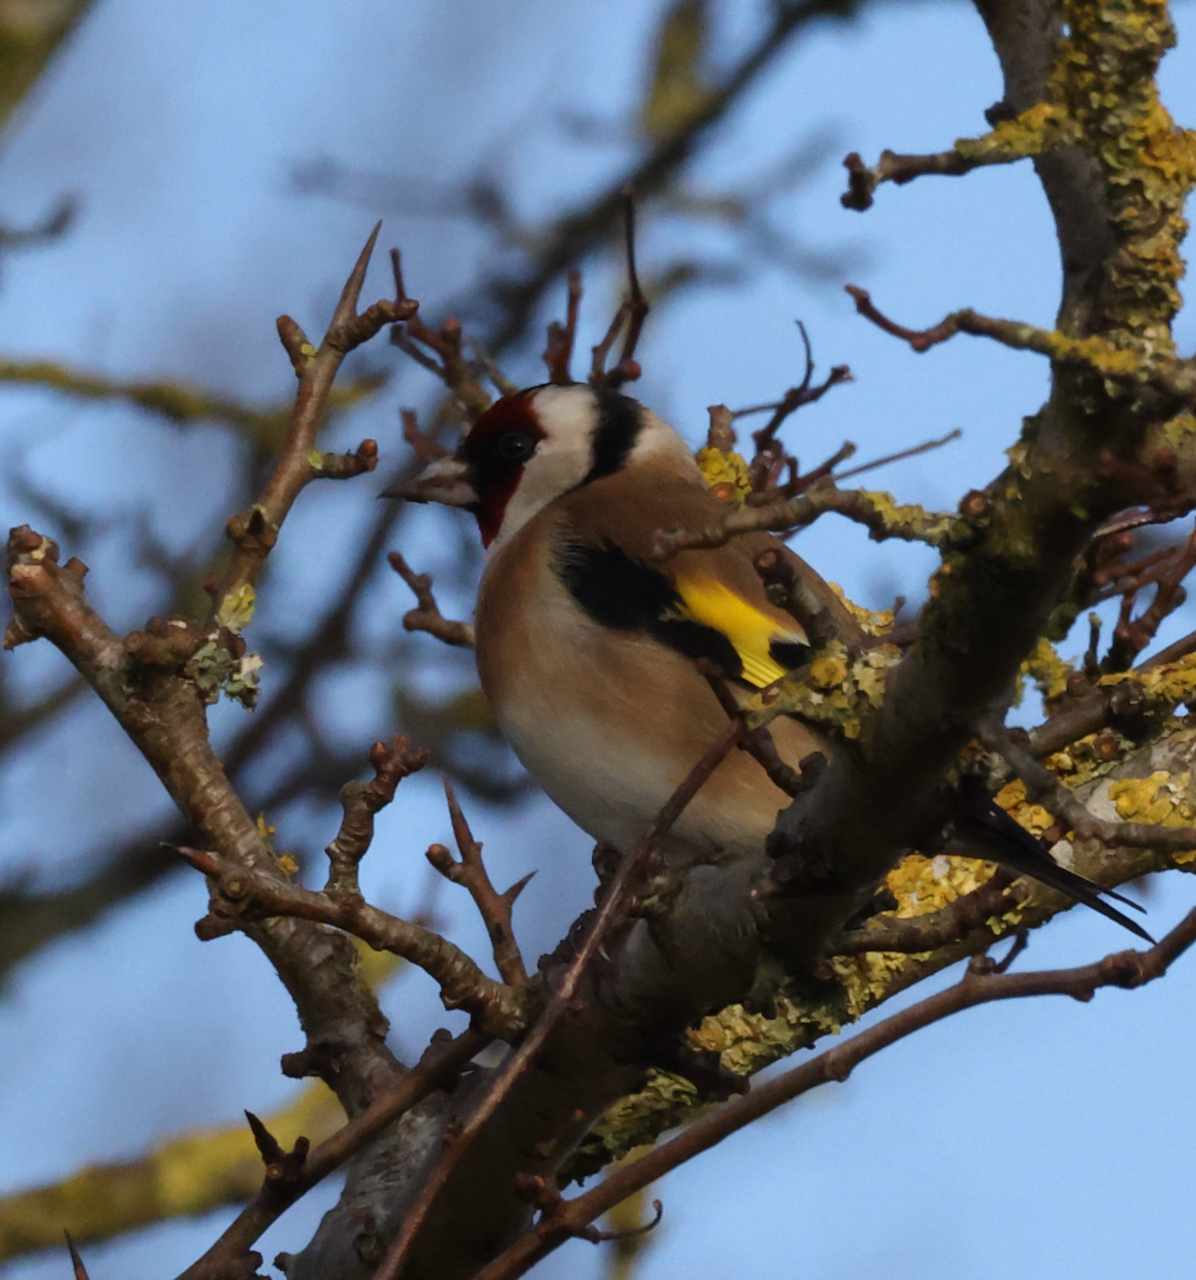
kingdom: Animalia
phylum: Chordata
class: Aves
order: Passeriformes
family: Fringillidae
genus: Carduelis
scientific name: Carduelis carduelis
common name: European goldfinch
